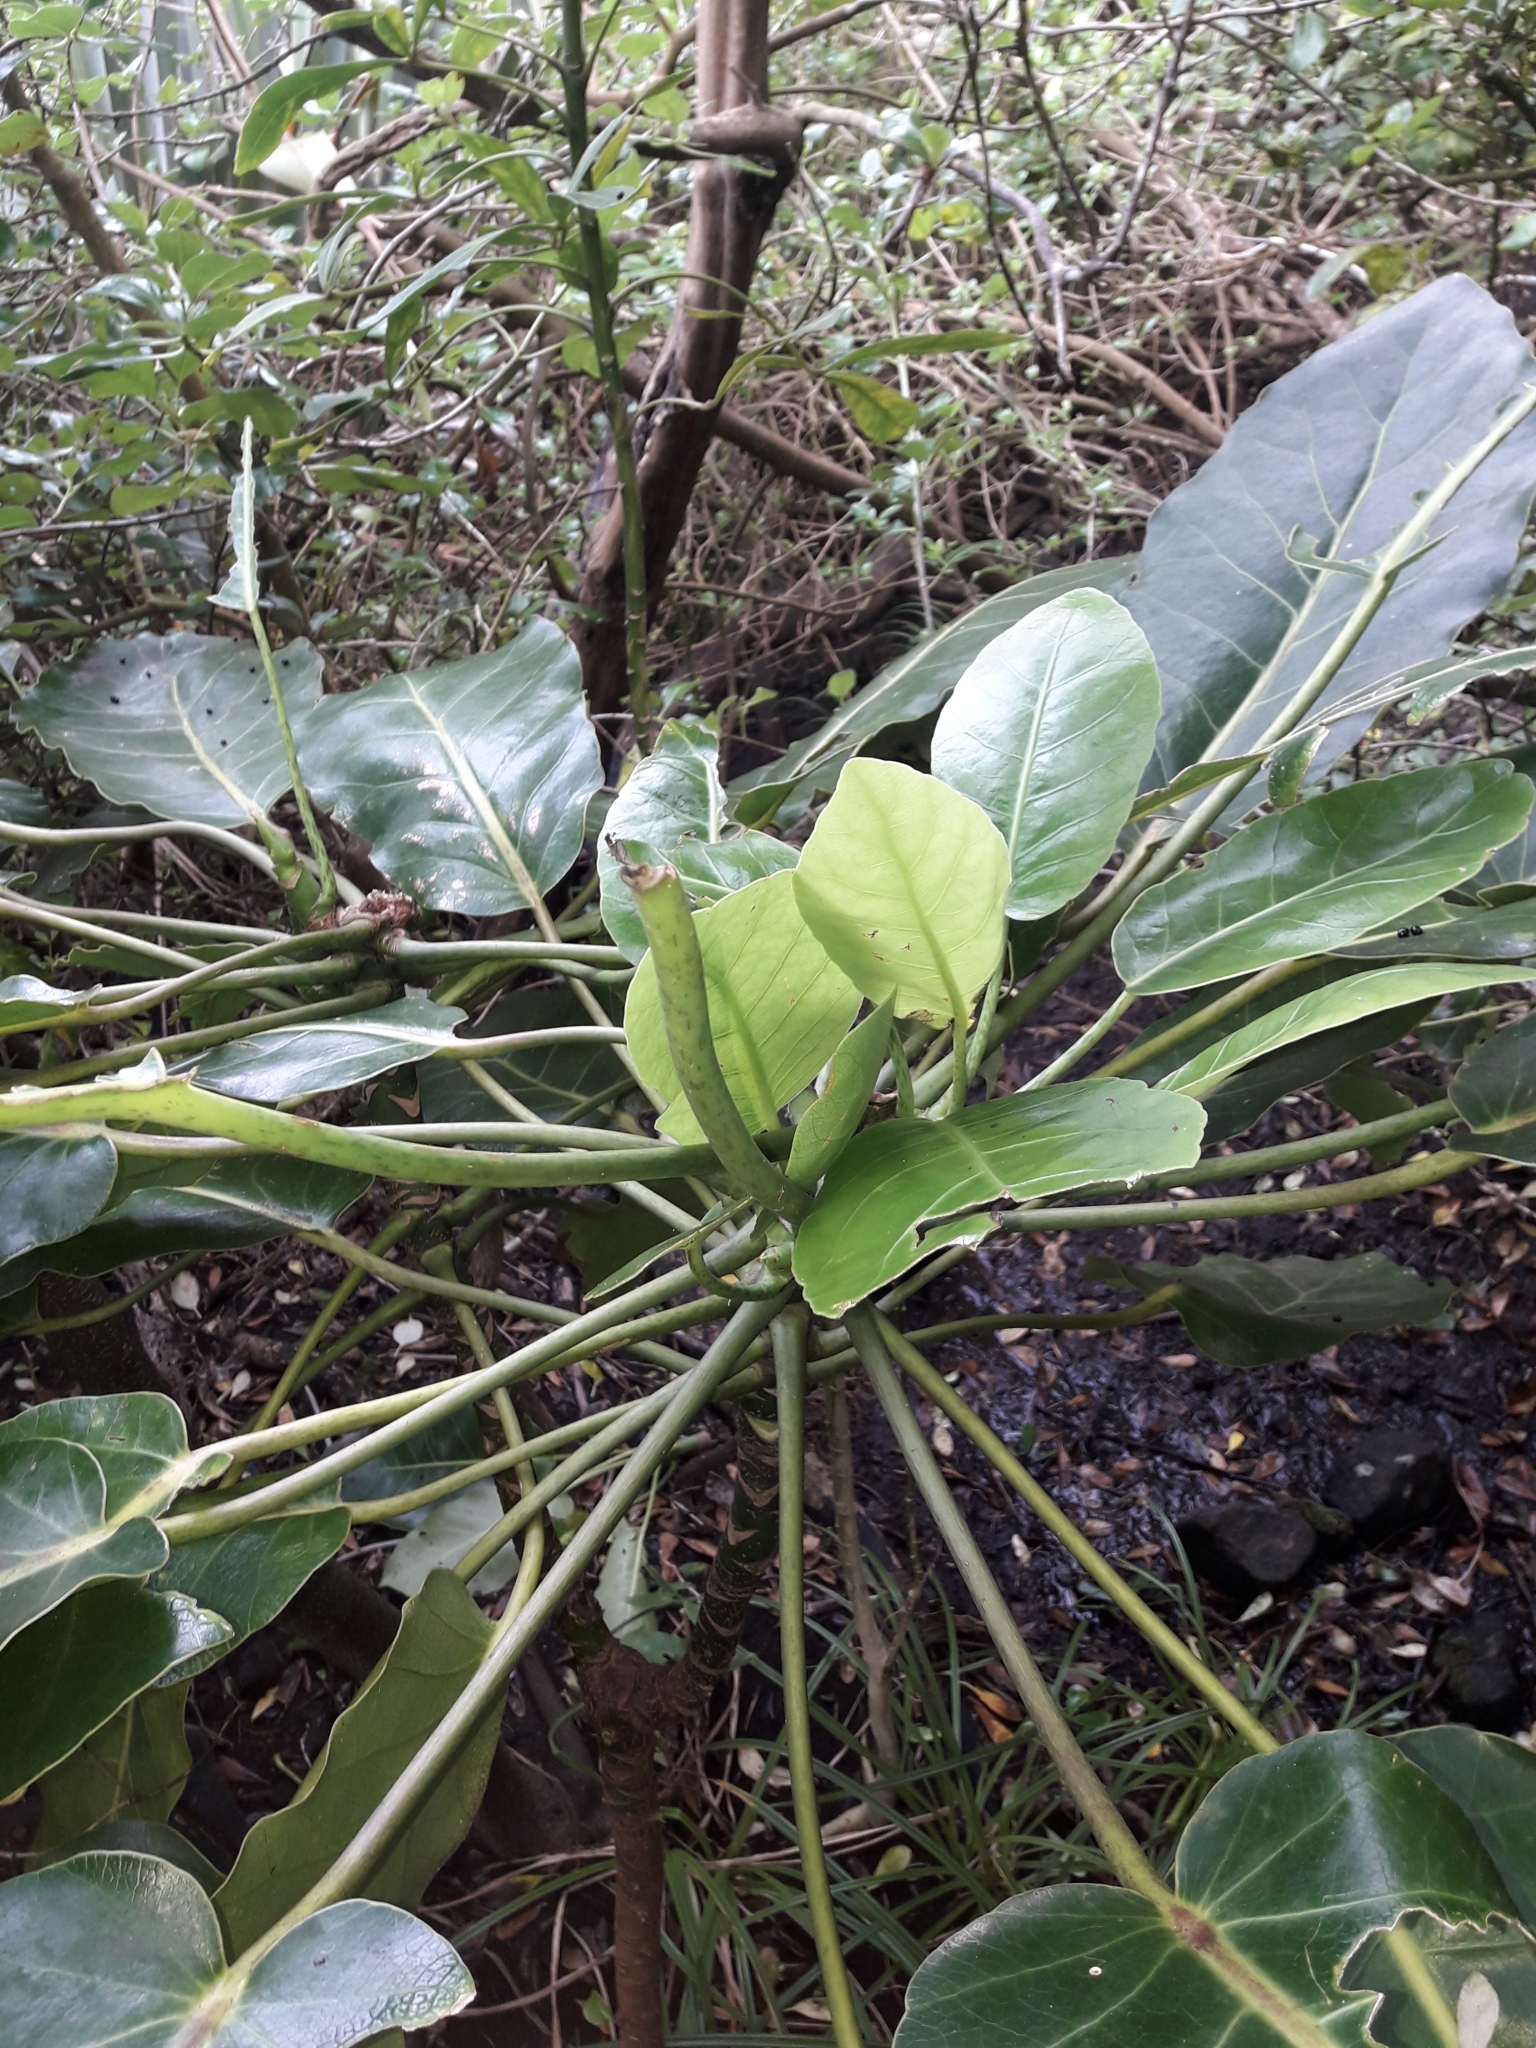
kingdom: Plantae
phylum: Tracheophyta
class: Magnoliopsida
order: Apiales
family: Araliaceae
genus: Meryta
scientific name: Meryta sinclairii
